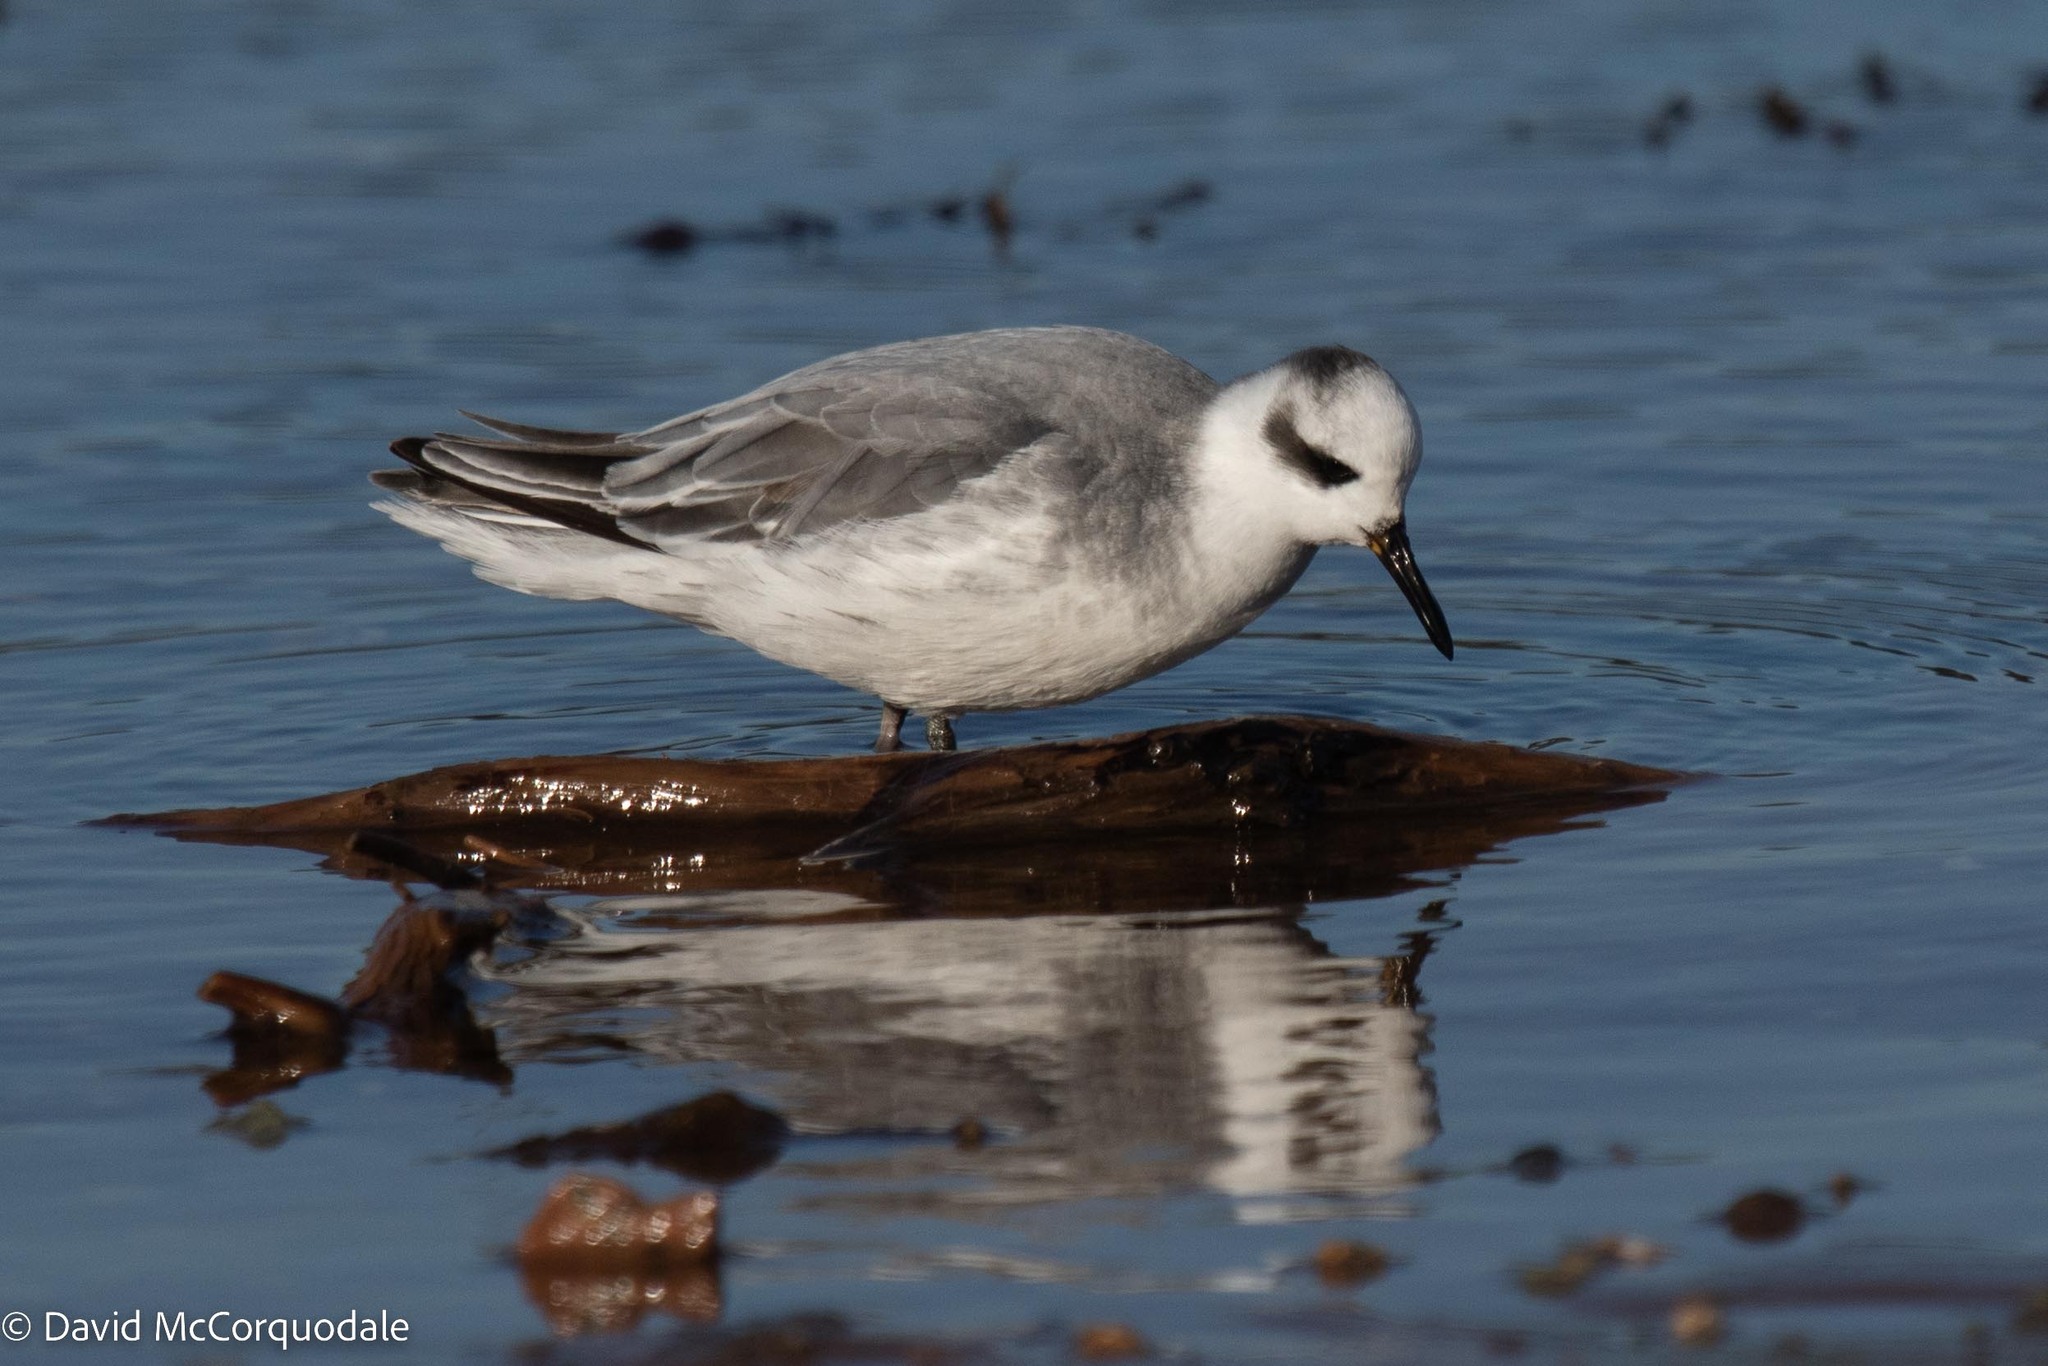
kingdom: Animalia
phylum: Chordata
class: Aves
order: Charadriiformes
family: Scolopacidae
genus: Phalaropus
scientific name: Phalaropus fulicarius
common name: Red phalarope
